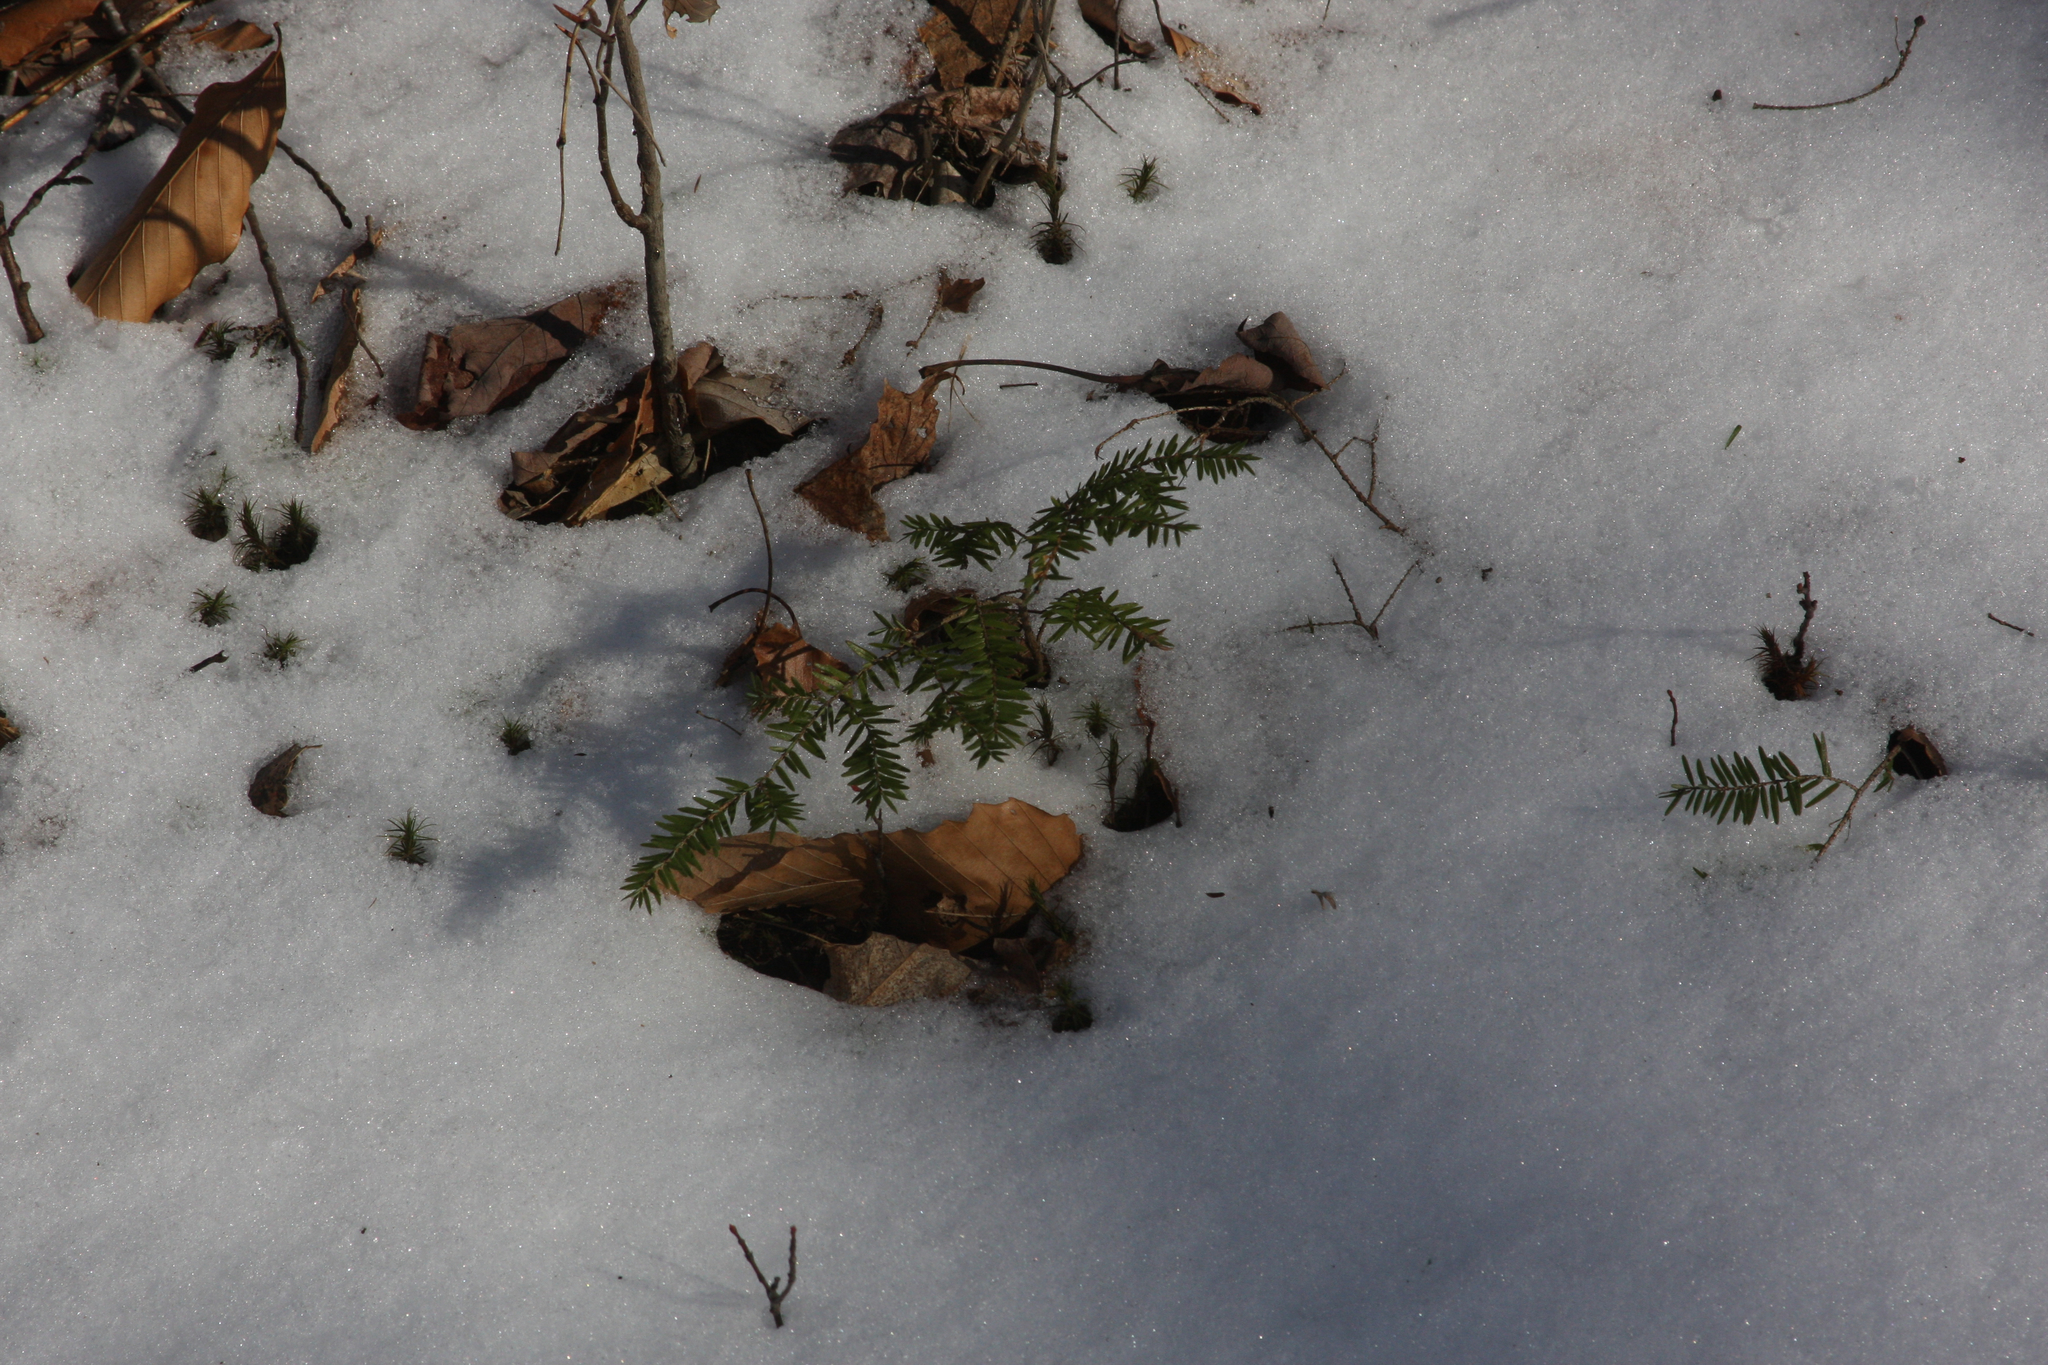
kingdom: Plantae
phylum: Tracheophyta
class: Pinopsida
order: Pinales
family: Pinaceae
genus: Tsuga
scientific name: Tsuga canadensis
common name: Eastern hemlock
